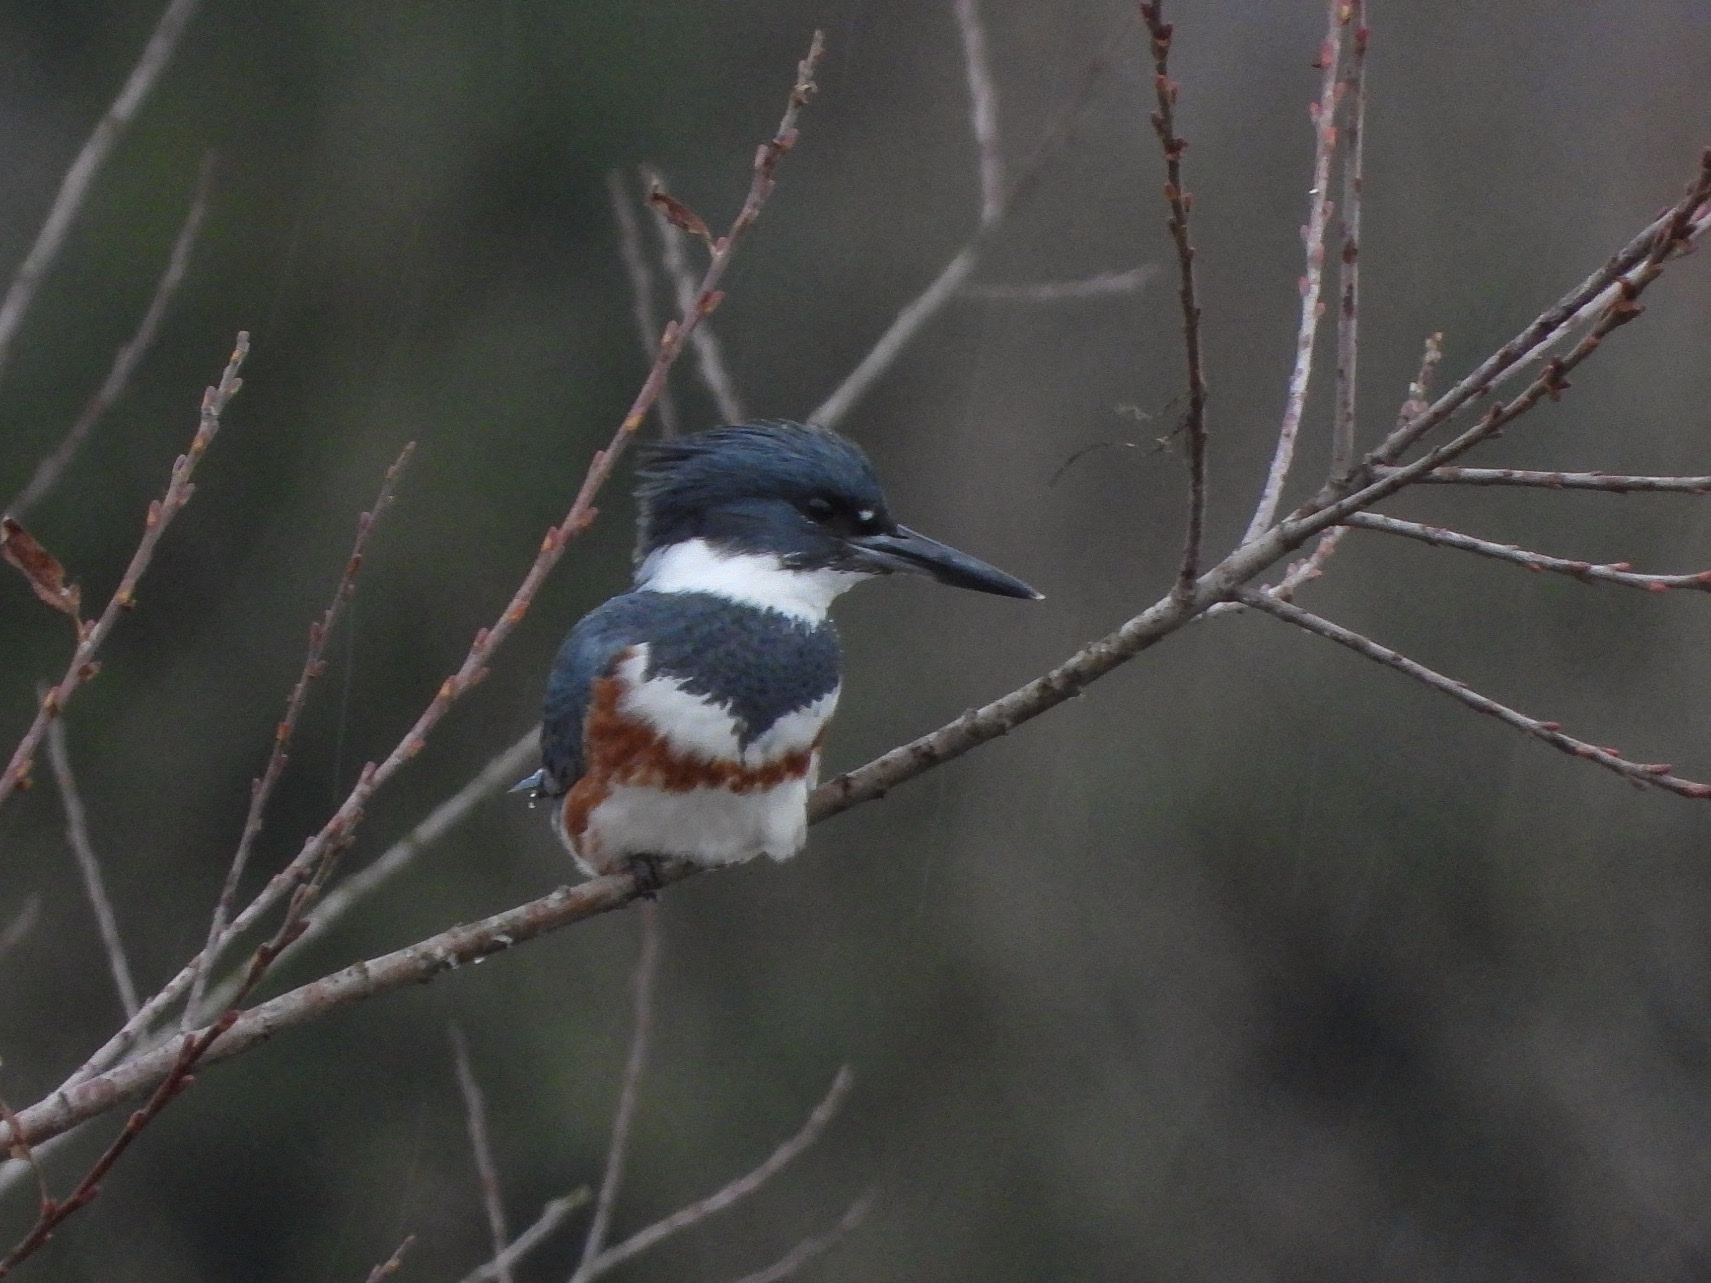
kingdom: Animalia
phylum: Chordata
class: Aves
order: Coraciiformes
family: Alcedinidae
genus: Megaceryle
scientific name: Megaceryle alcyon
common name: Belted kingfisher
